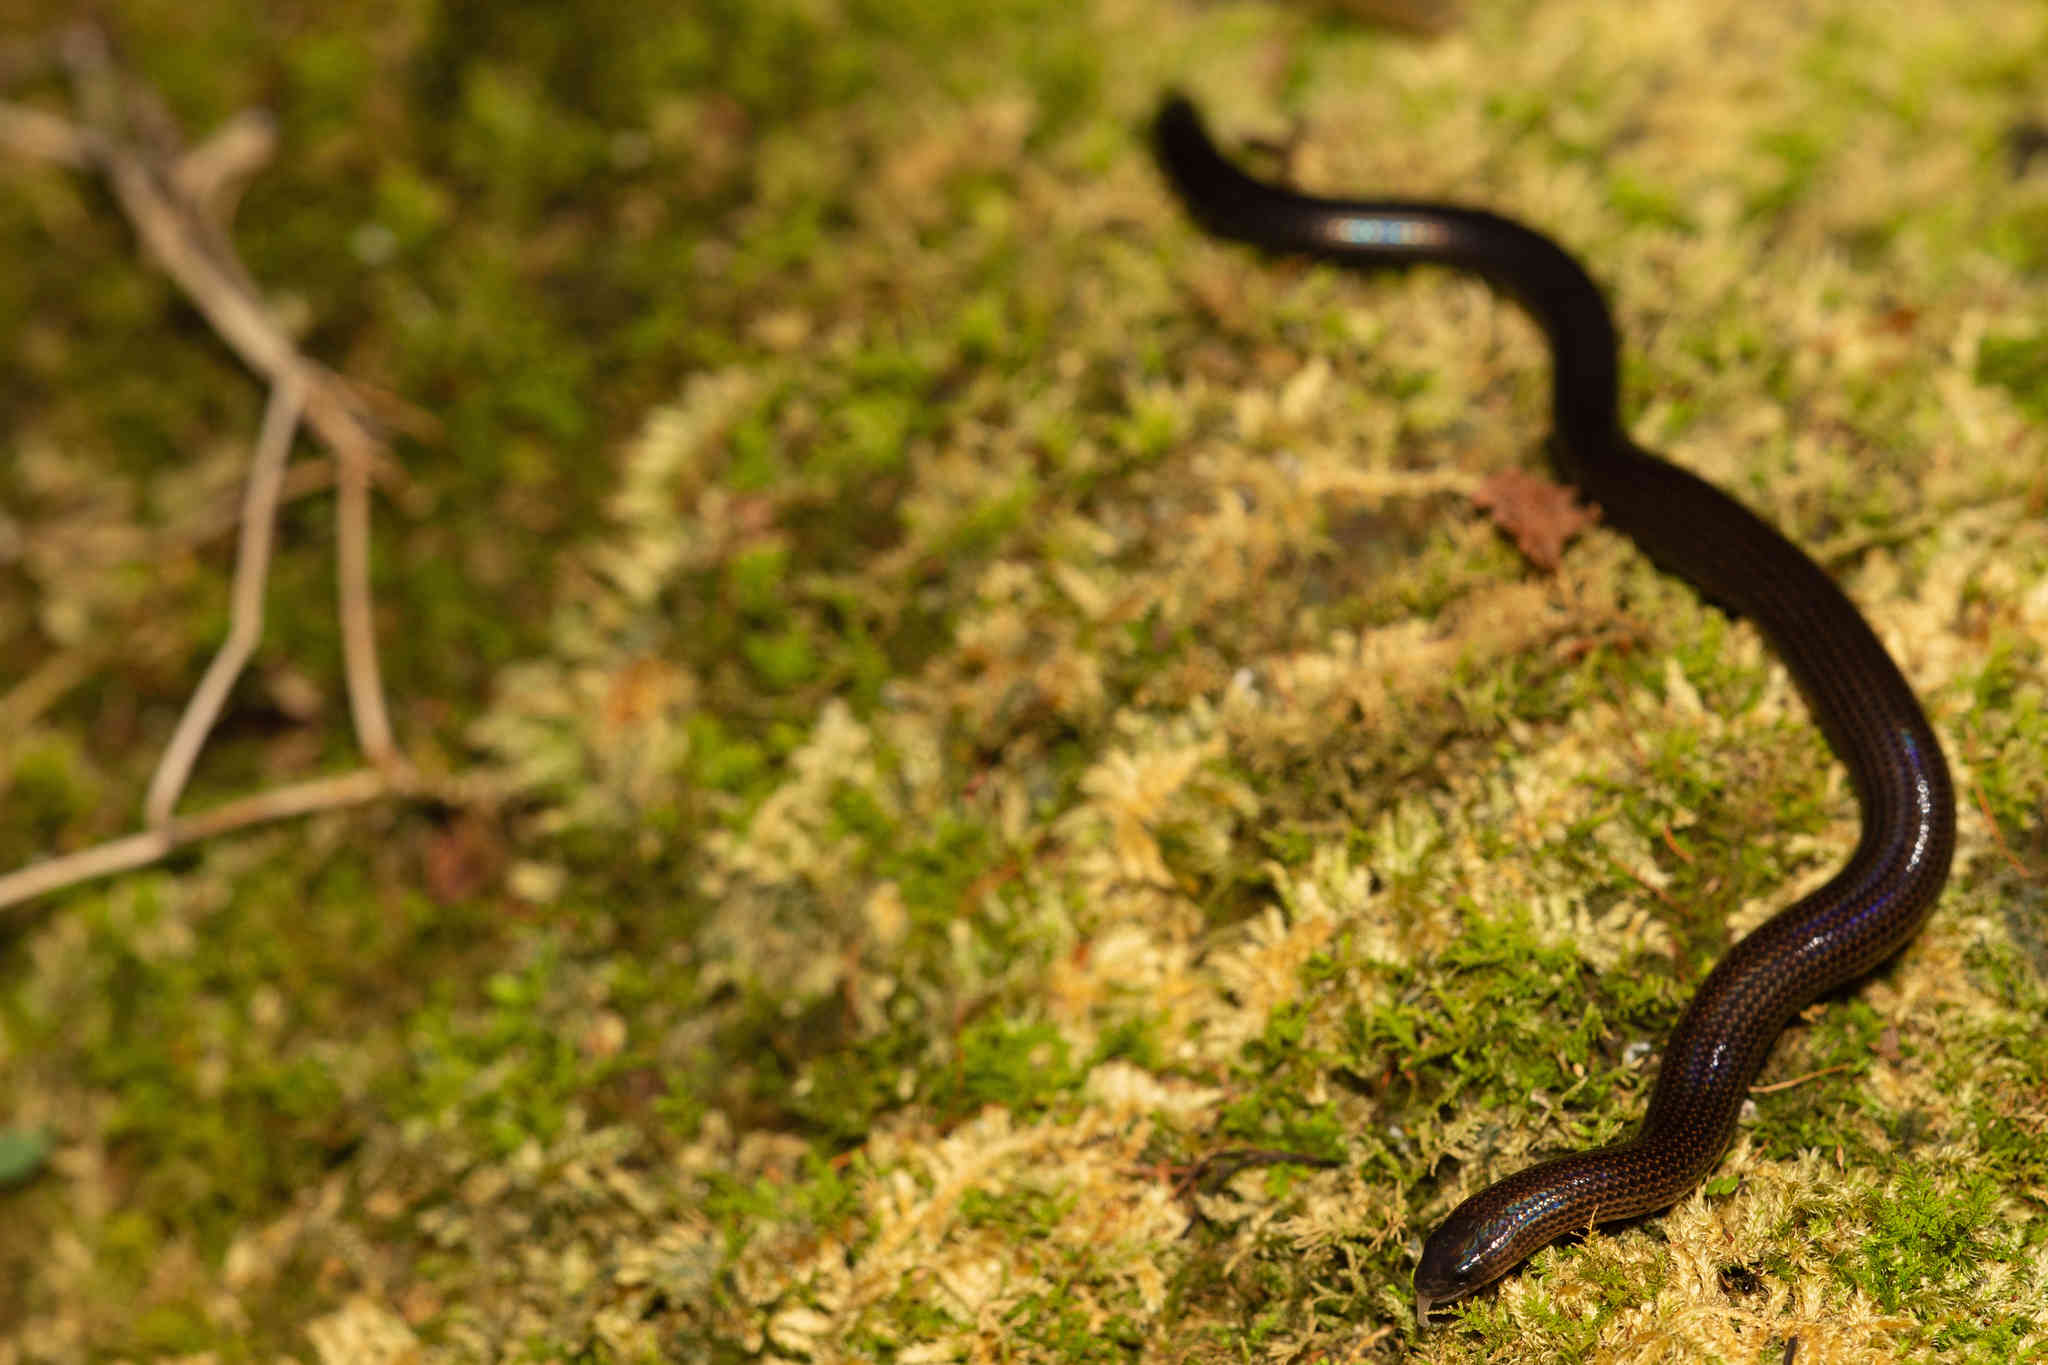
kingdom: Animalia
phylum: Chordata
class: Squamata
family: Scincidae
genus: Melanoseps
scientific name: Melanoseps occidentalis
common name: Western limbless skink
